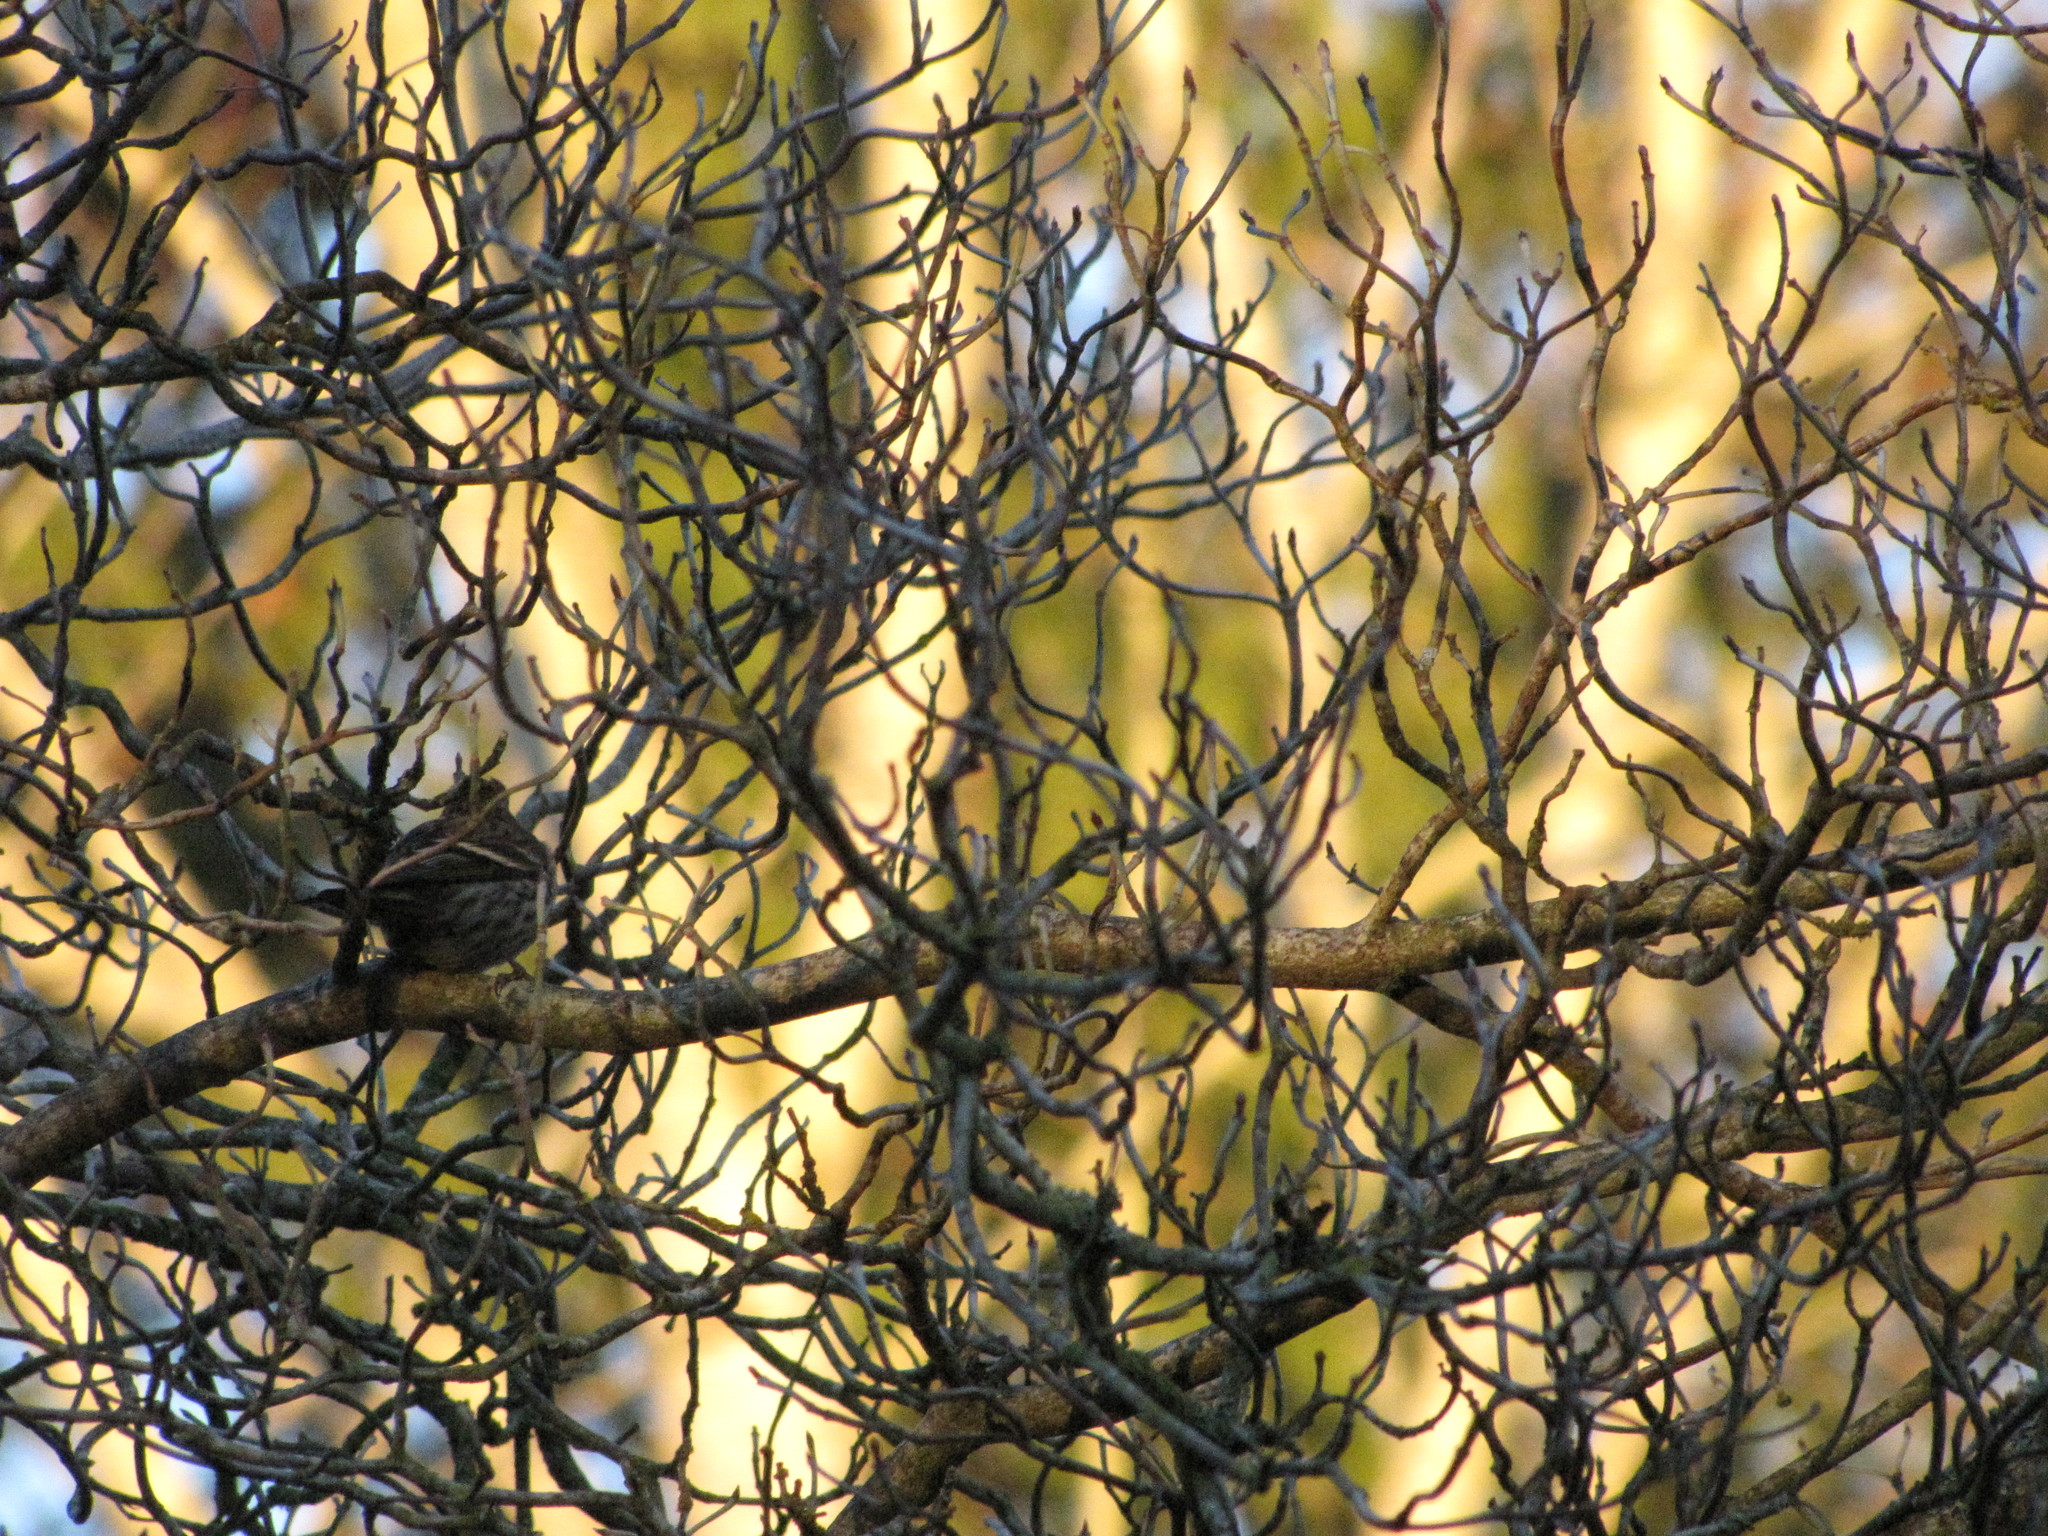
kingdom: Animalia
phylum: Chordata
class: Aves
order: Passeriformes
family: Fringillidae
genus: Spinus
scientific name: Spinus pinus
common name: Pine siskin
